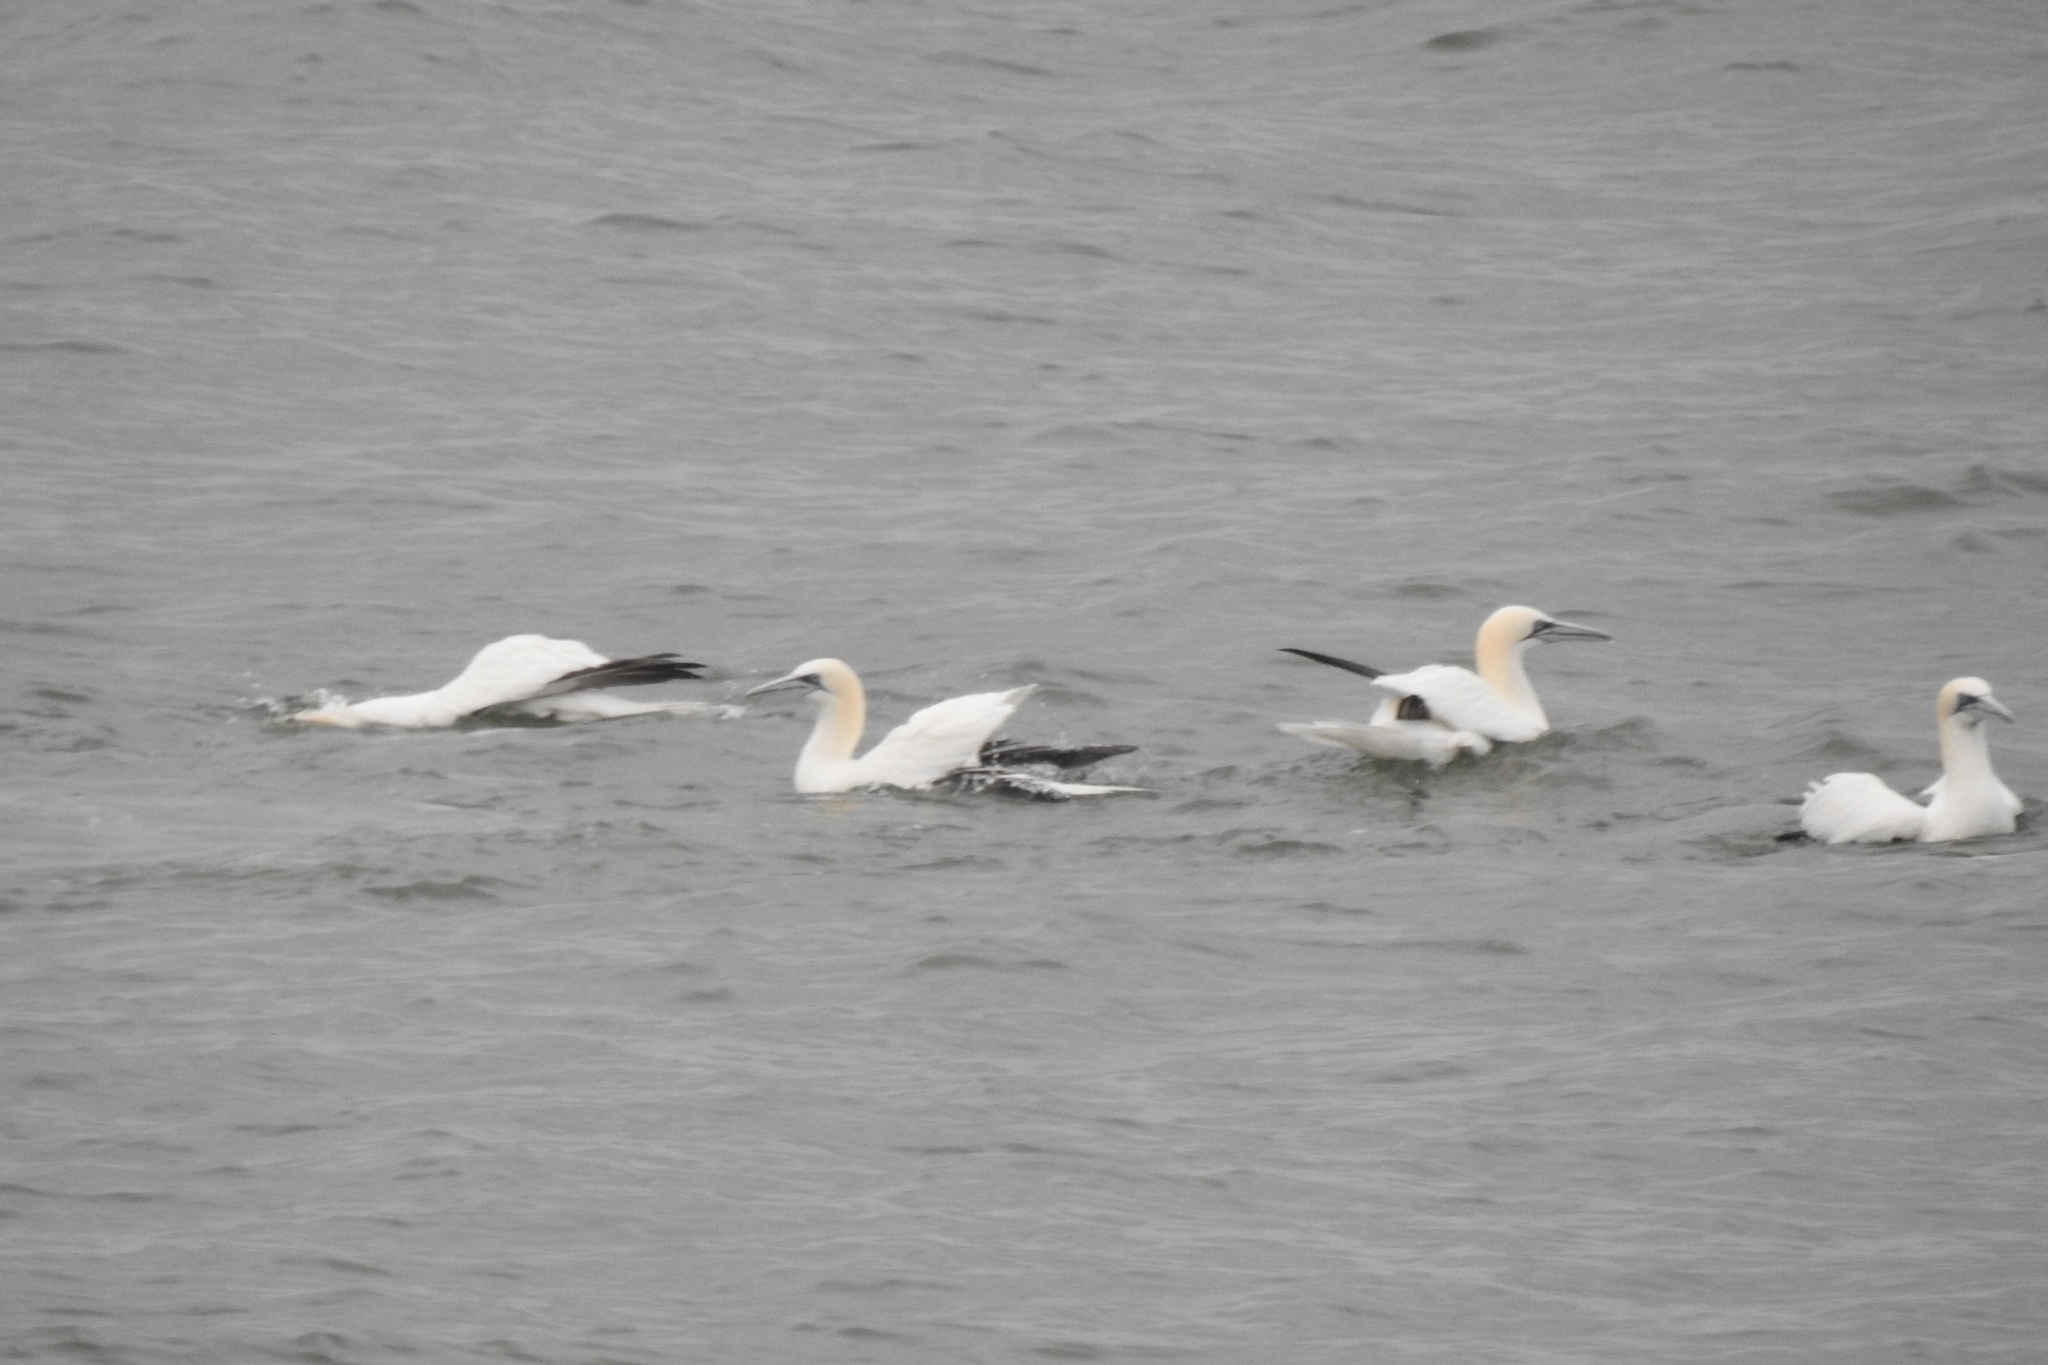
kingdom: Animalia
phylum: Chordata
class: Aves
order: Suliformes
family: Sulidae
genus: Morus
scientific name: Morus bassanus
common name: Northern gannet
